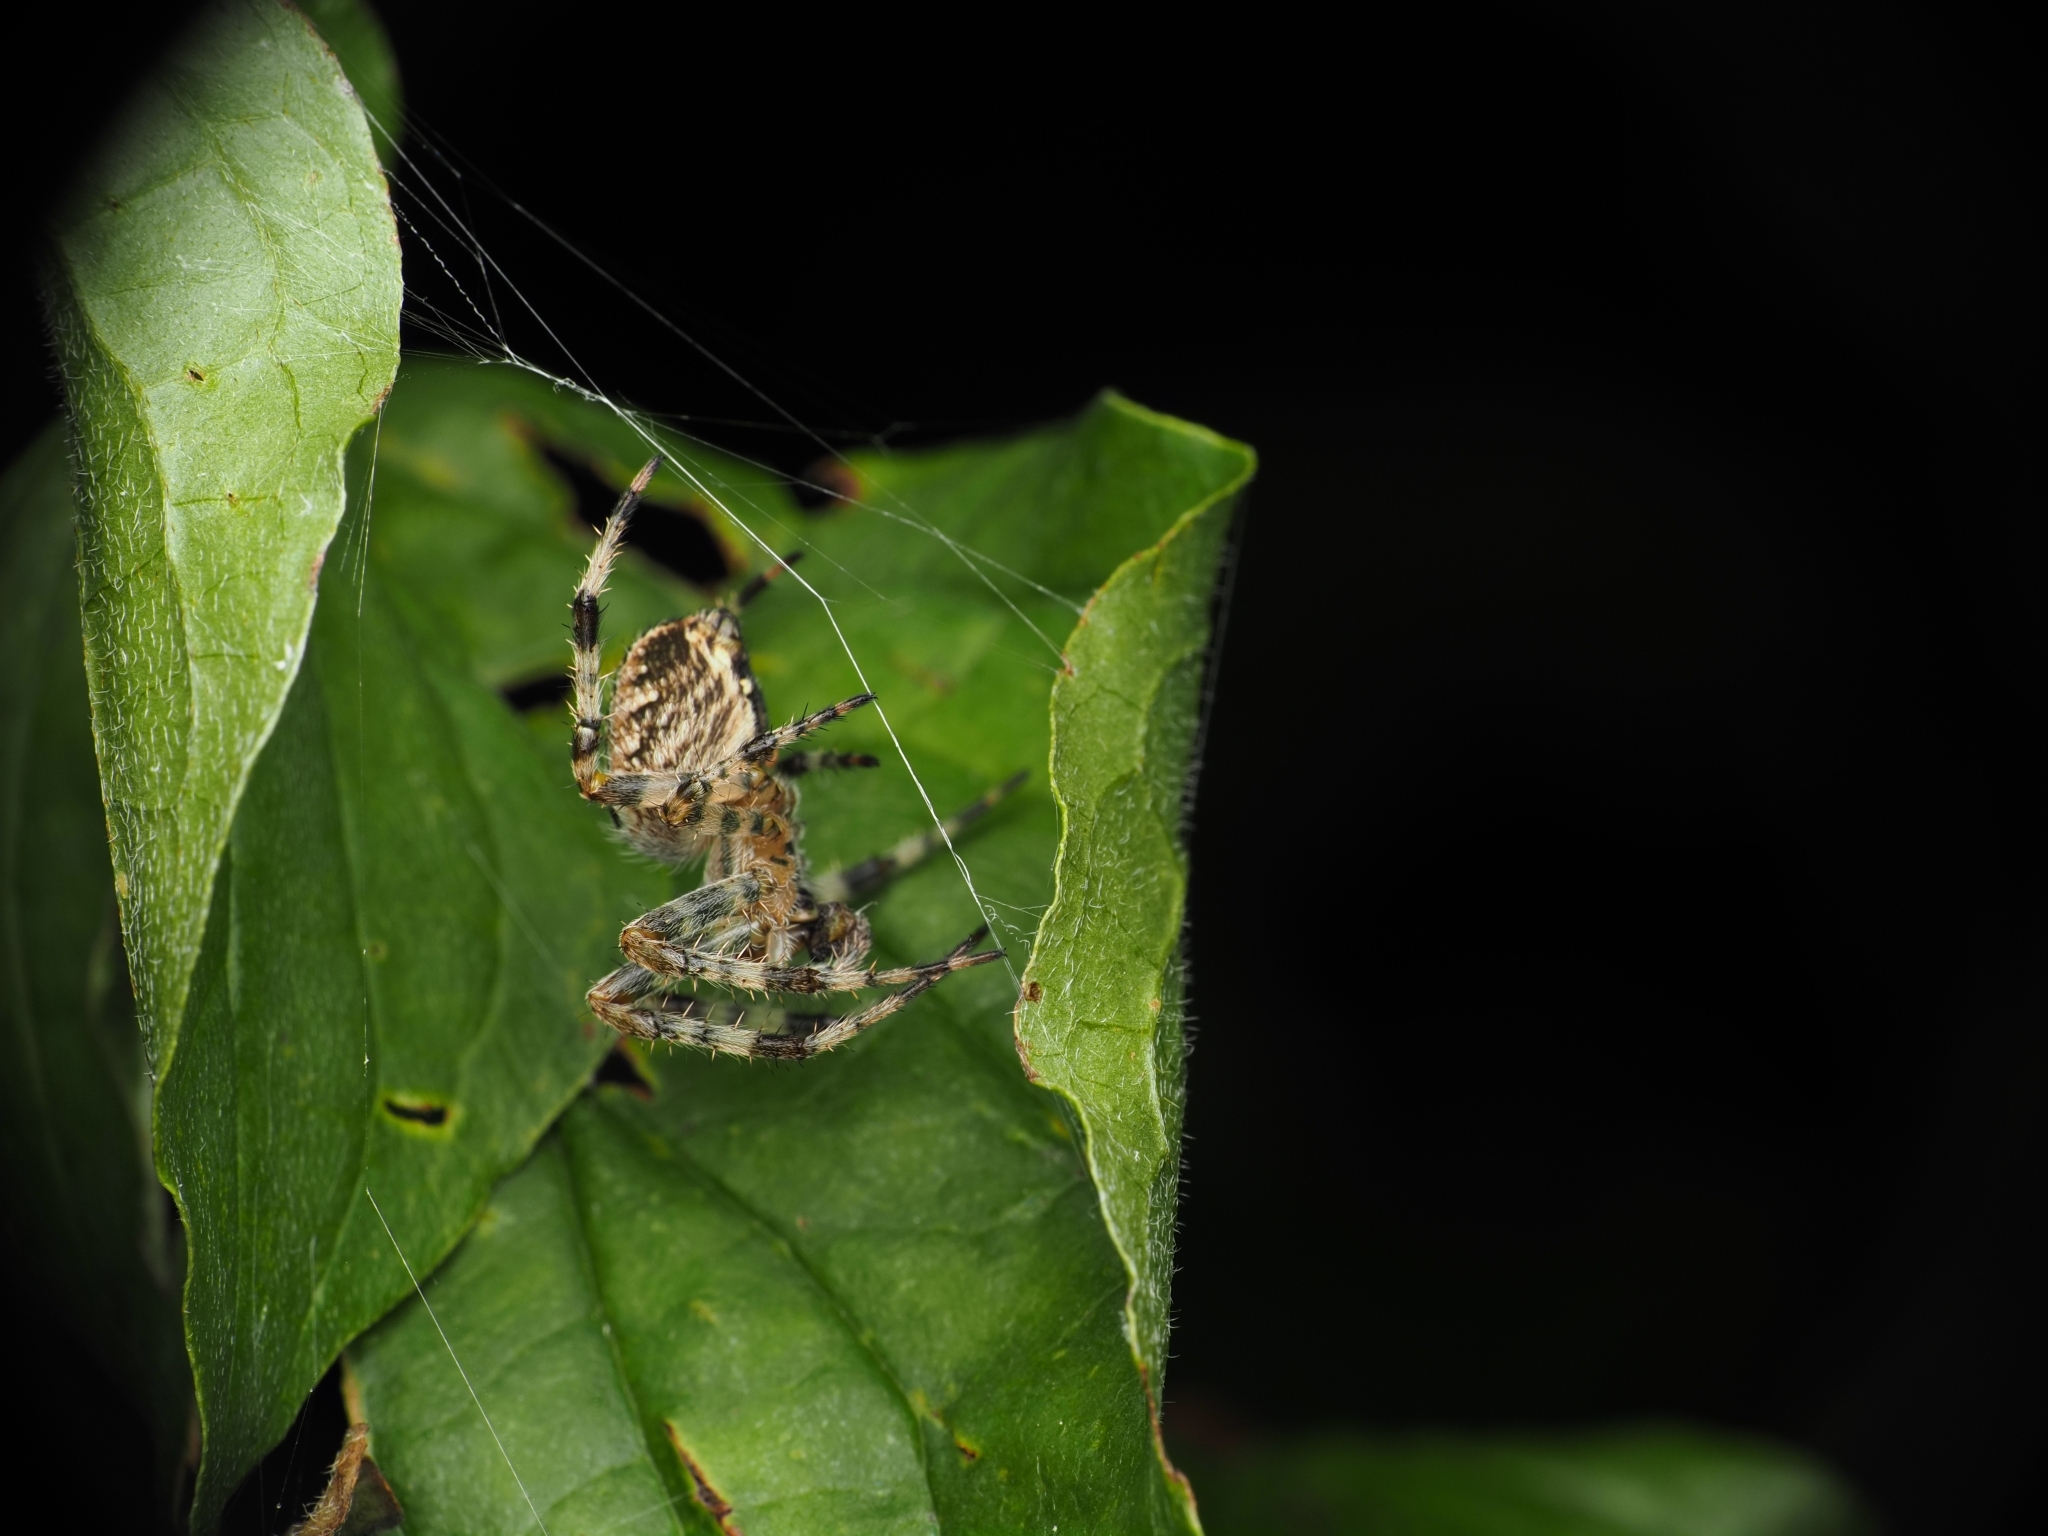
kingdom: Animalia
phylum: Arthropoda
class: Arachnida
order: Araneae
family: Araneidae
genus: Araneus
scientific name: Araneus diadematus
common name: Cross orbweaver
